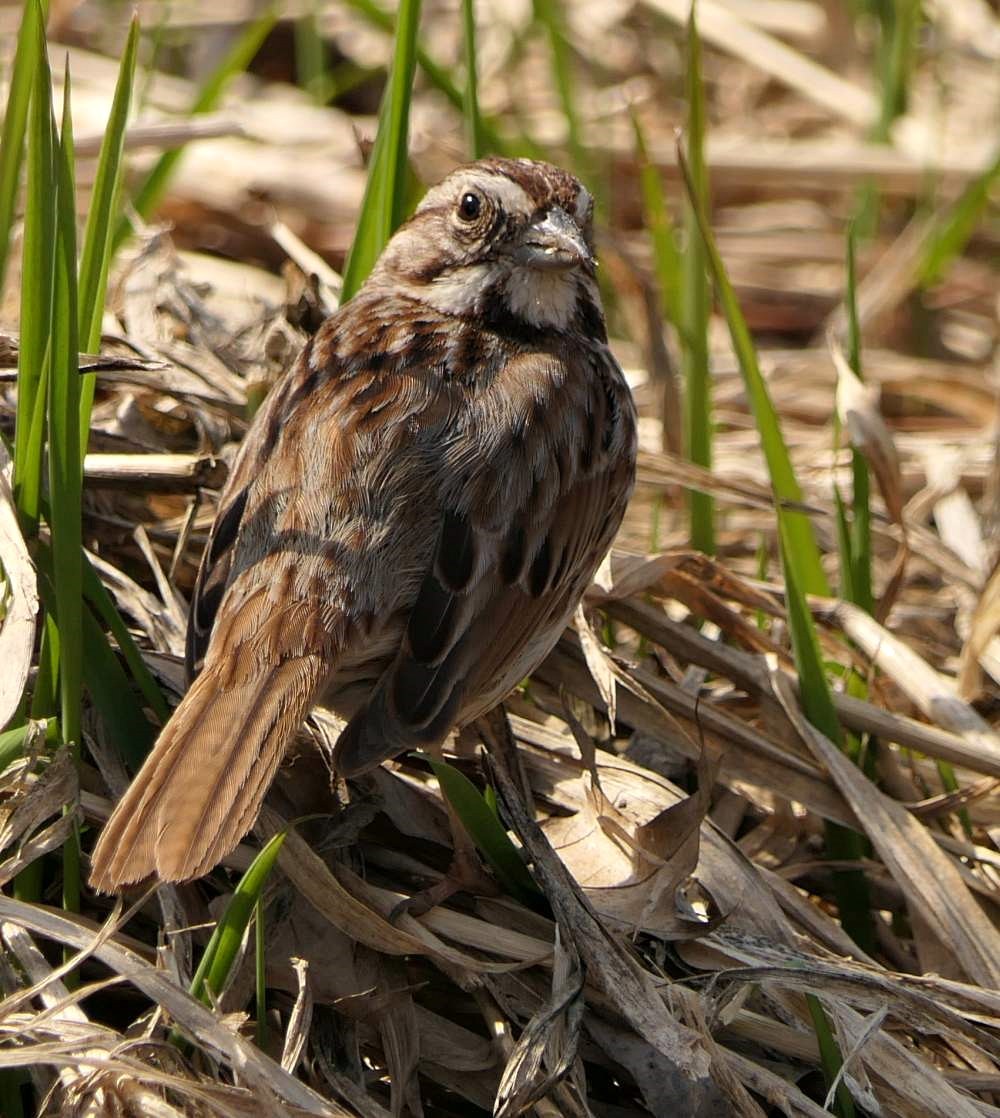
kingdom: Animalia
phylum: Chordata
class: Aves
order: Passeriformes
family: Passerellidae
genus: Melospiza
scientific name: Melospiza melodia
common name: Song sparrow
